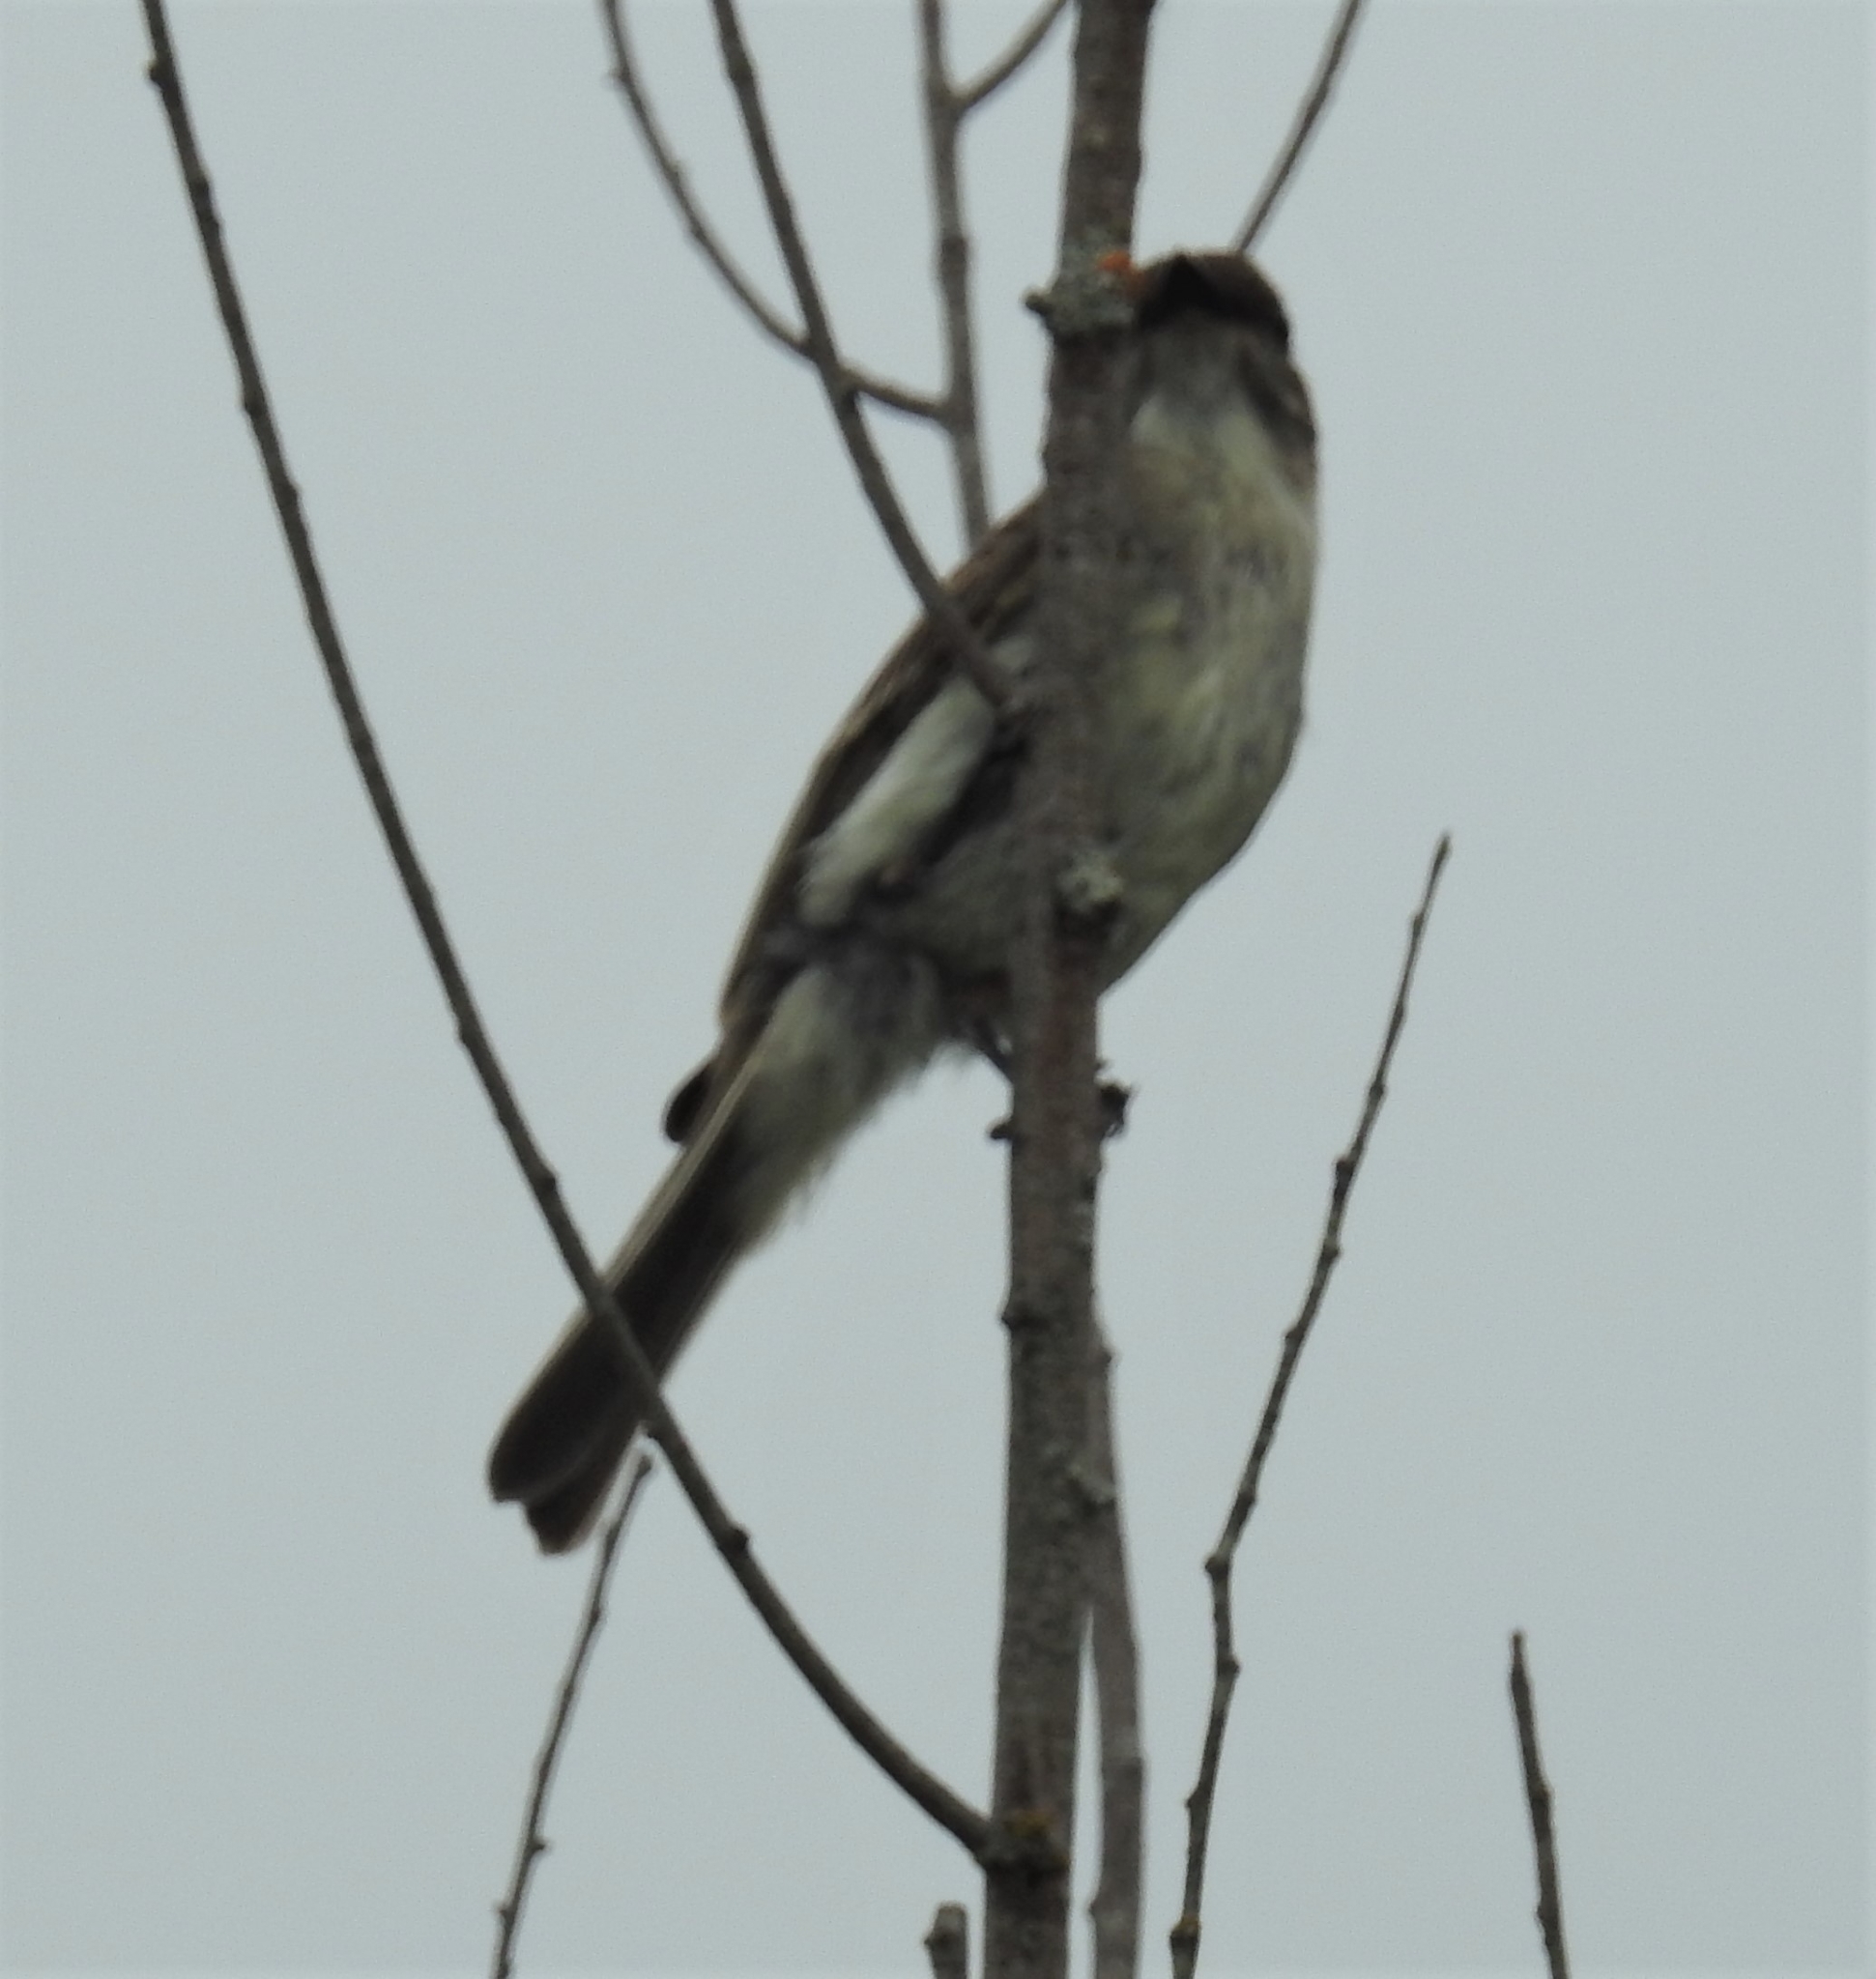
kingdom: Animalia
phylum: Chordata
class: Aves
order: Passeriformes
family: Tyrannidae
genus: Sayornis
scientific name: Sayornis phoebe
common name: Eastern phoebe
